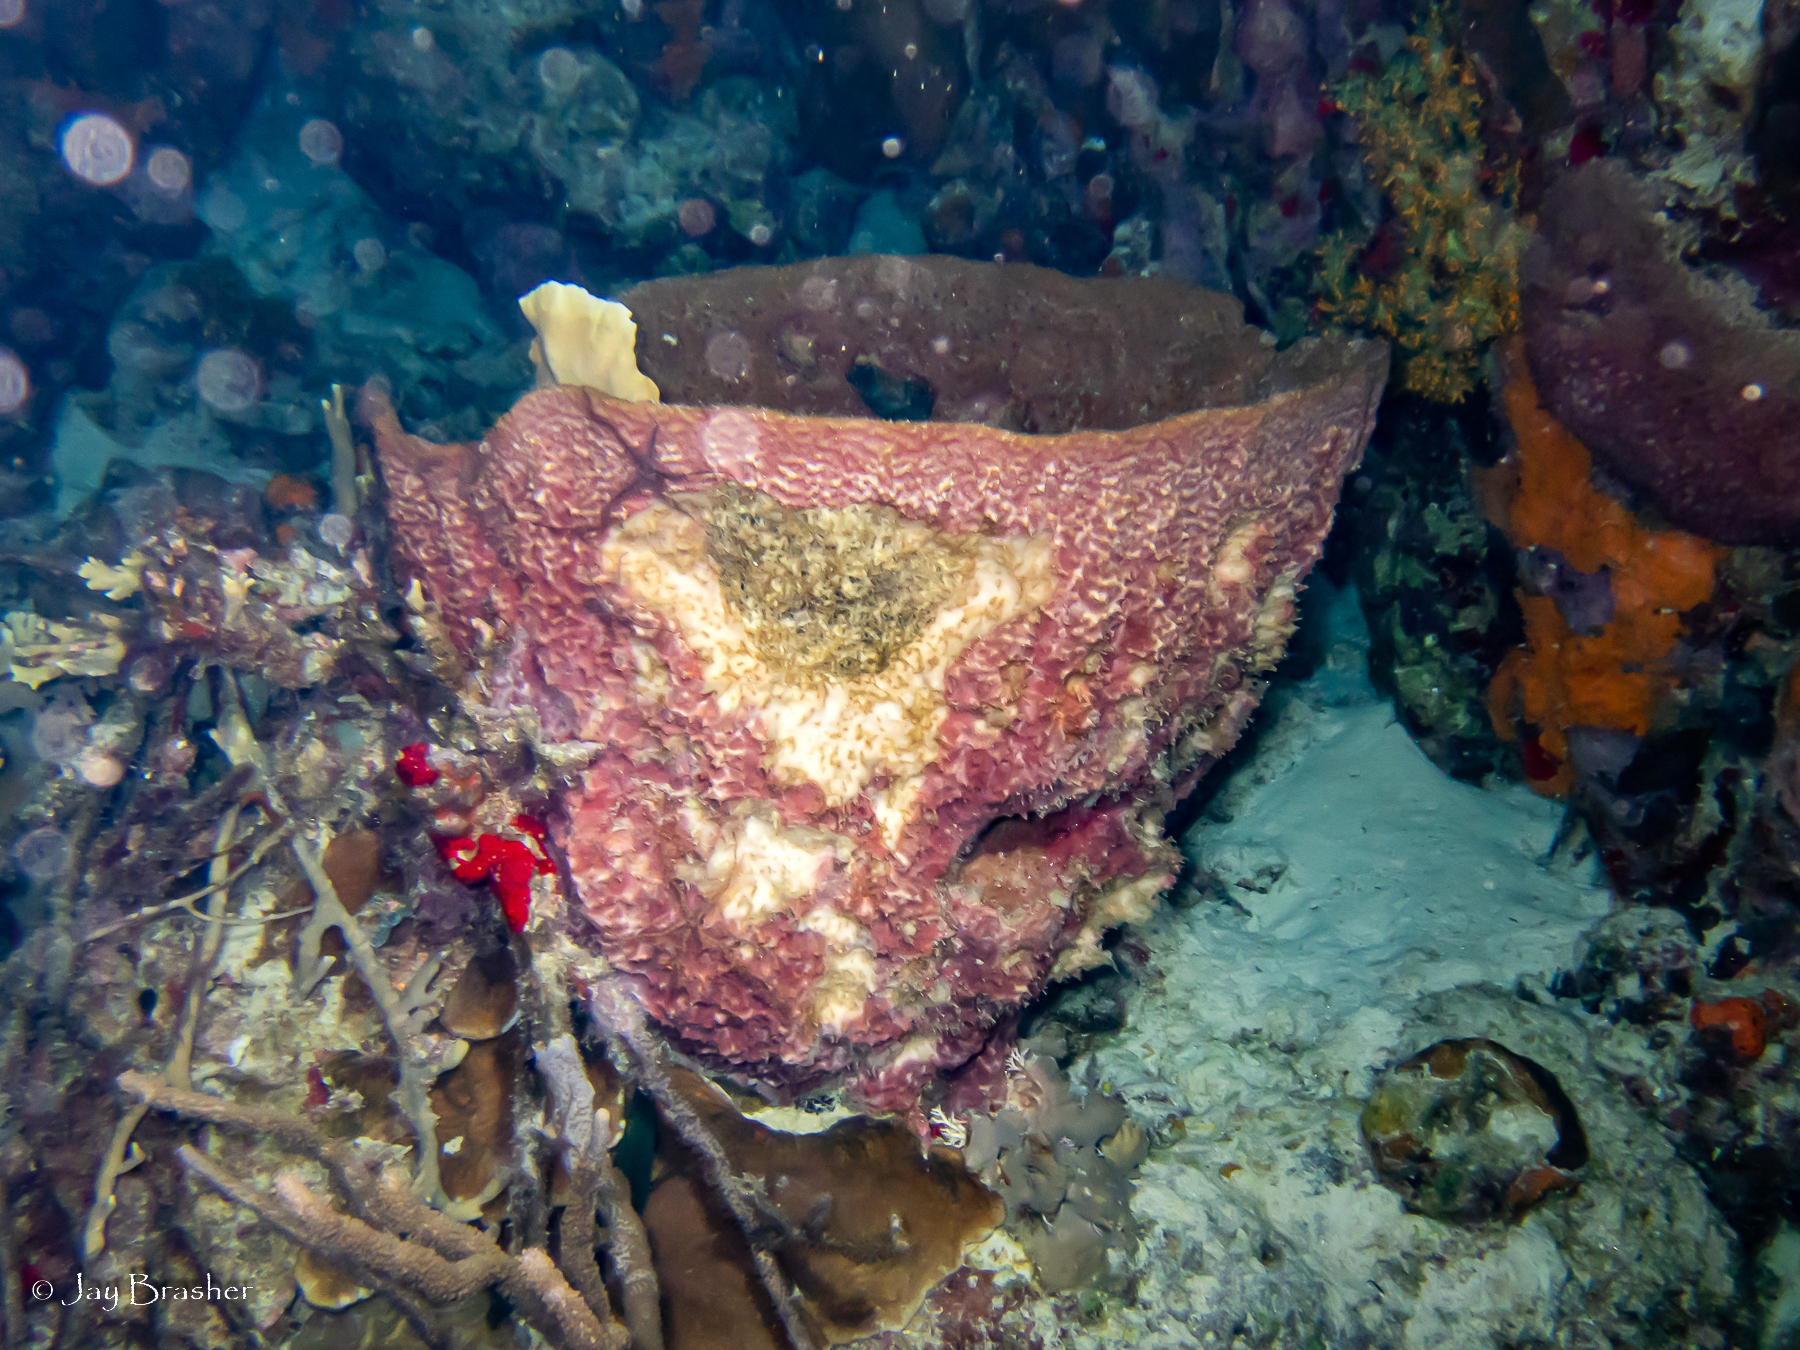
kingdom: Animalia
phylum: Porifera
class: Demospongiae
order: Dictyoceratida
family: Irciniidae
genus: Ircinia
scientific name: Ircinia campana
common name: Vase sponge
